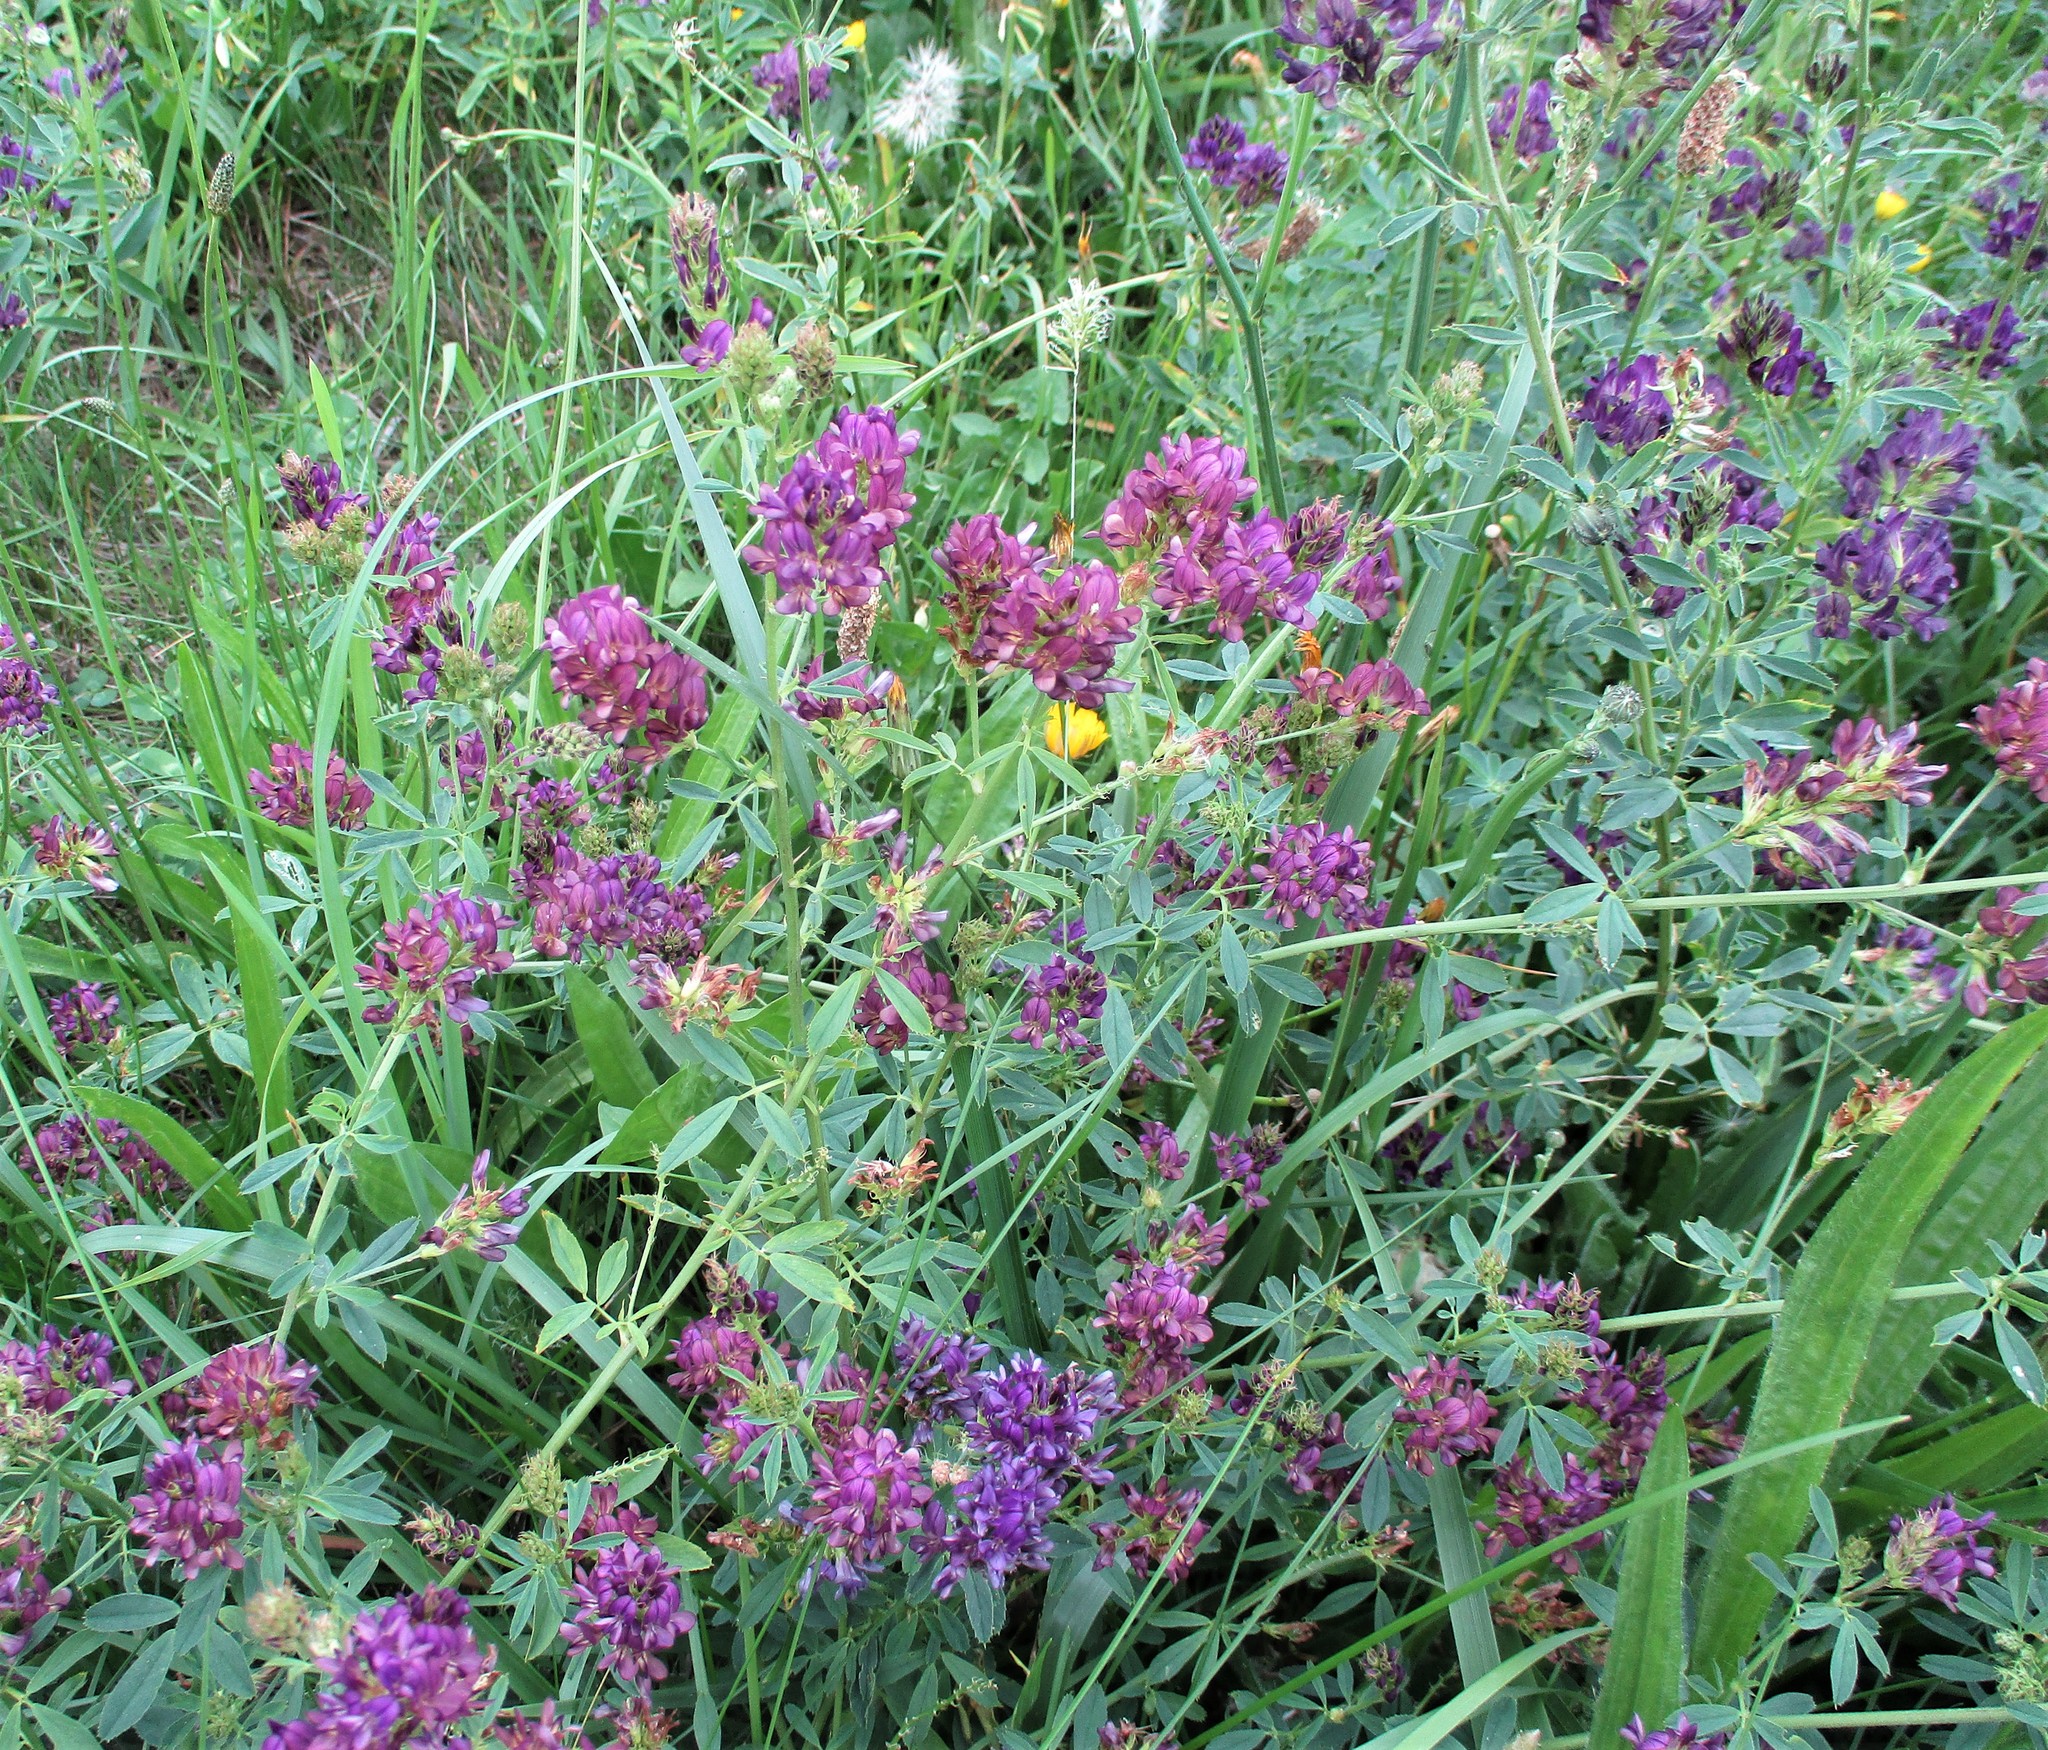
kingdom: Plantae
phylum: Tracheophyta
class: Magnoliopsida
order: Fabales
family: Fabaceae
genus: Medicago
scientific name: Medicago sativa
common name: Alfalfa
